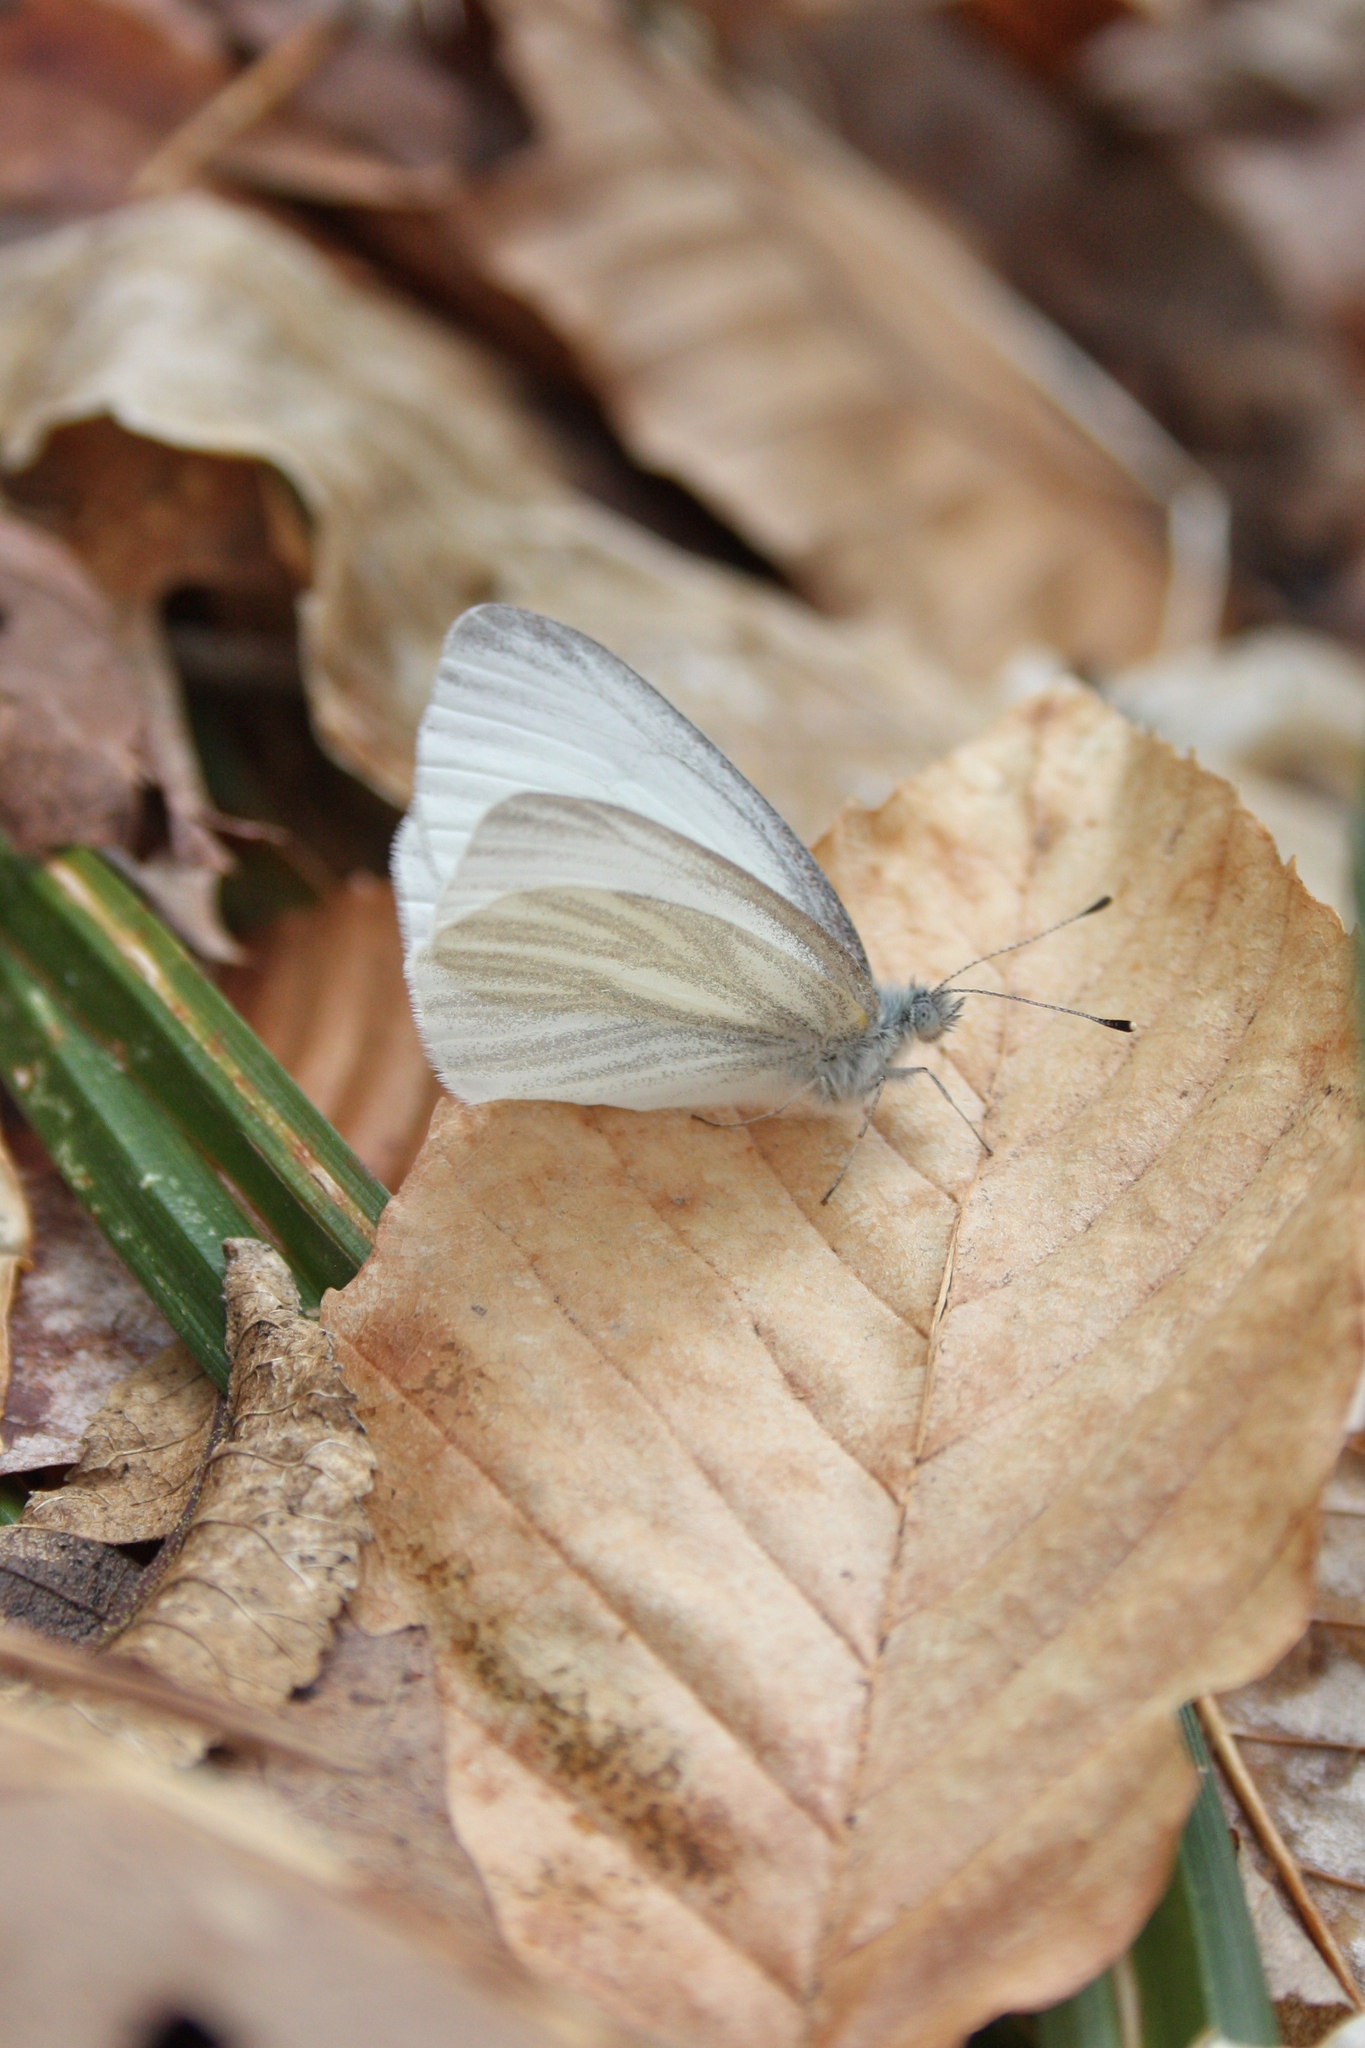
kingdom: Animalia
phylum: Arthropoda
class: Insecta
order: Lepidoptera
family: Pieridae
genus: Pieris
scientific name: Pieris virginiensis
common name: West virginia white
